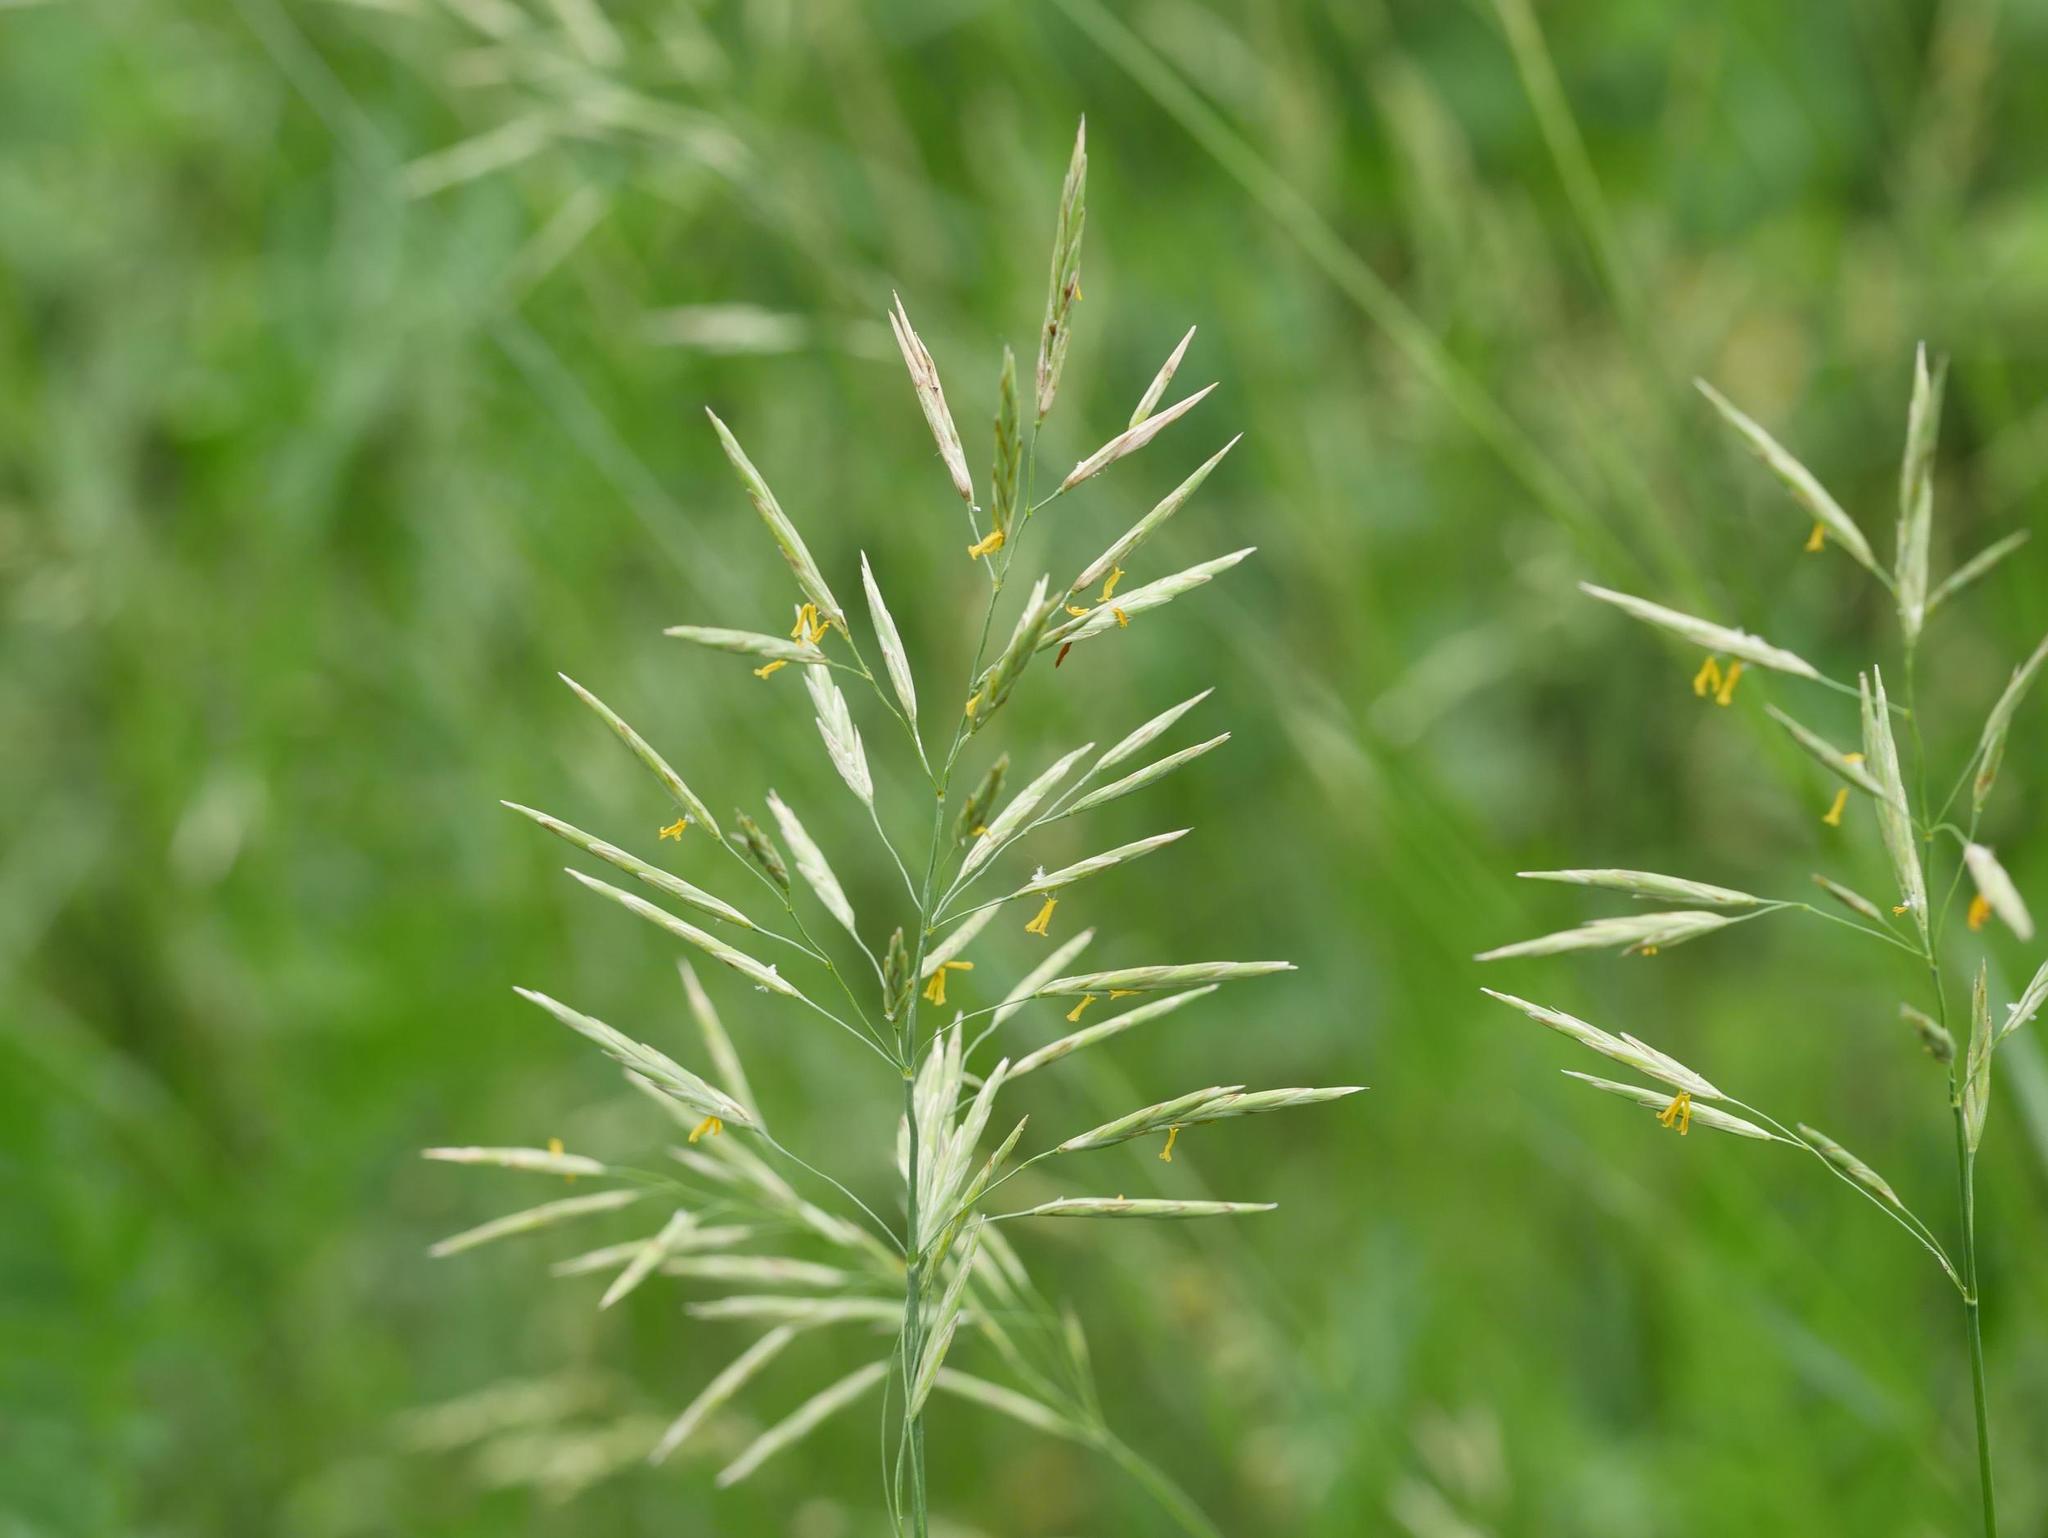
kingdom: Plantae
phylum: Tracheophyta
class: Liliopsida
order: Poales
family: Poaceae
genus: Bromus
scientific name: Bromus inermis
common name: Smooth brome
